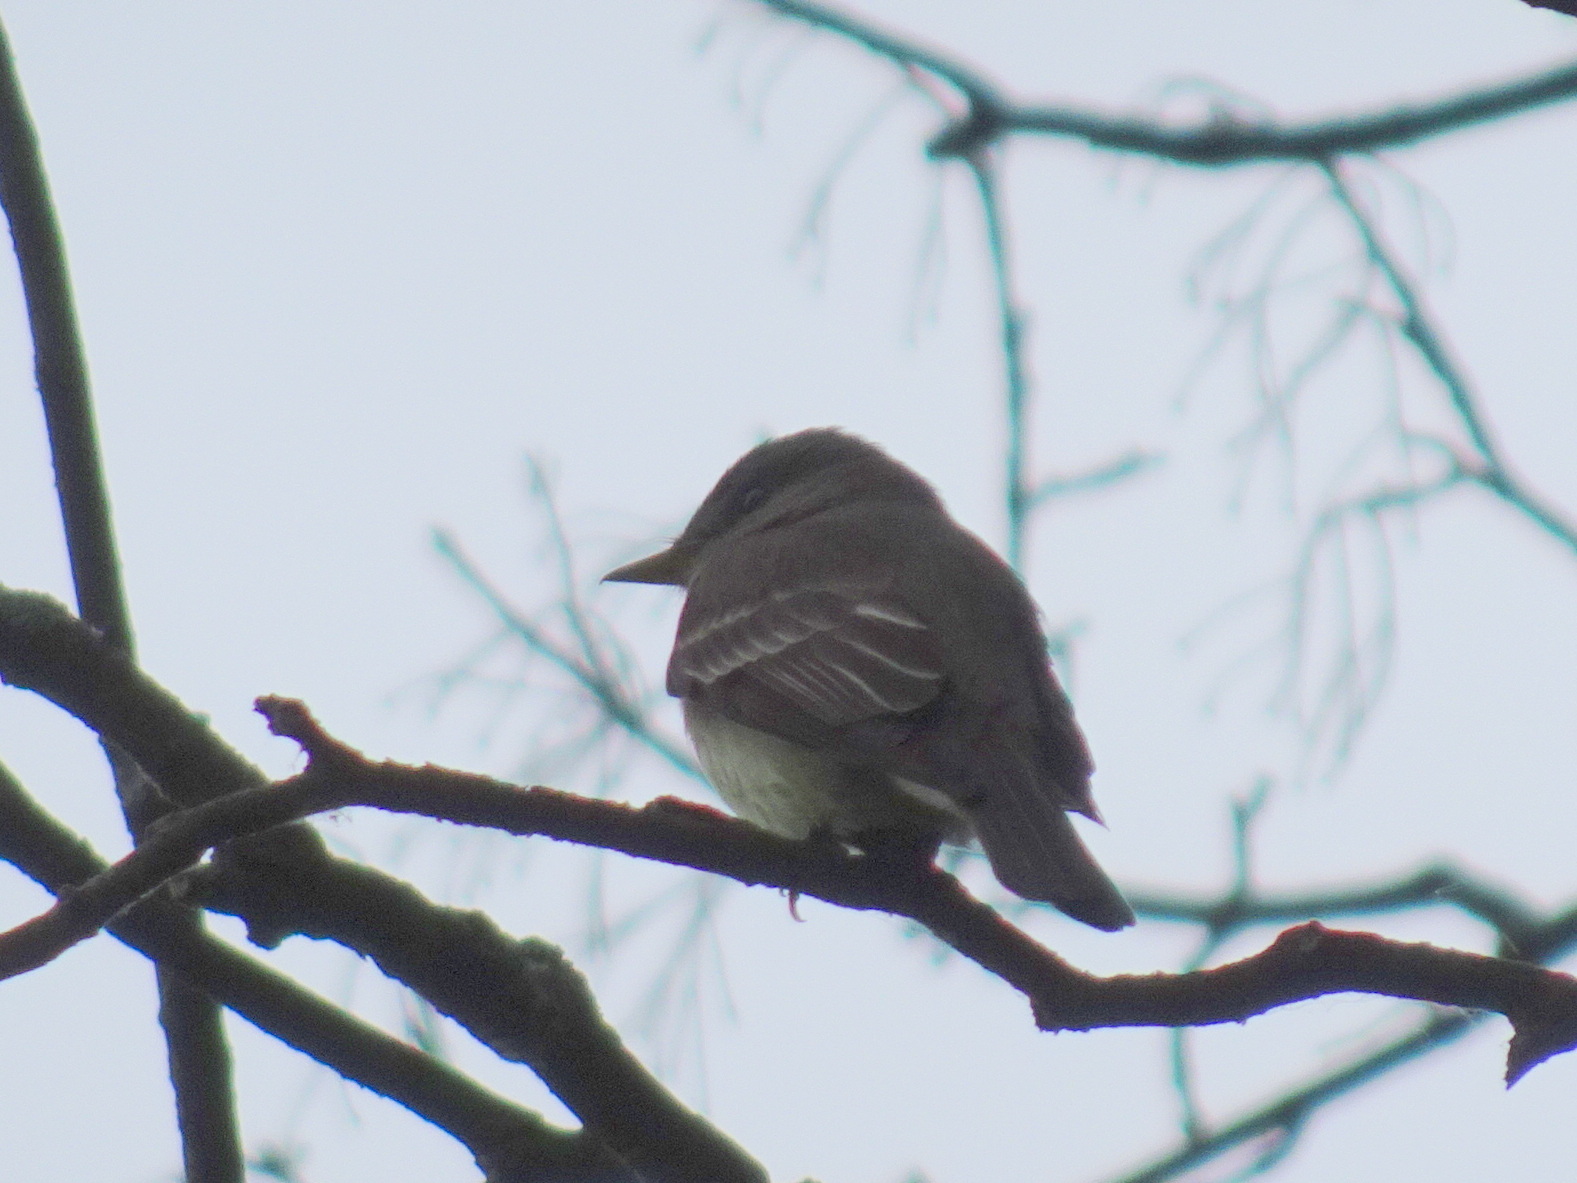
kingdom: Animalia
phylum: Chordata
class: Aves
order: Passeriformes
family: Tyrannidae
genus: Contopus
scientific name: Contopus virens
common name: Eastern wood-pewee
